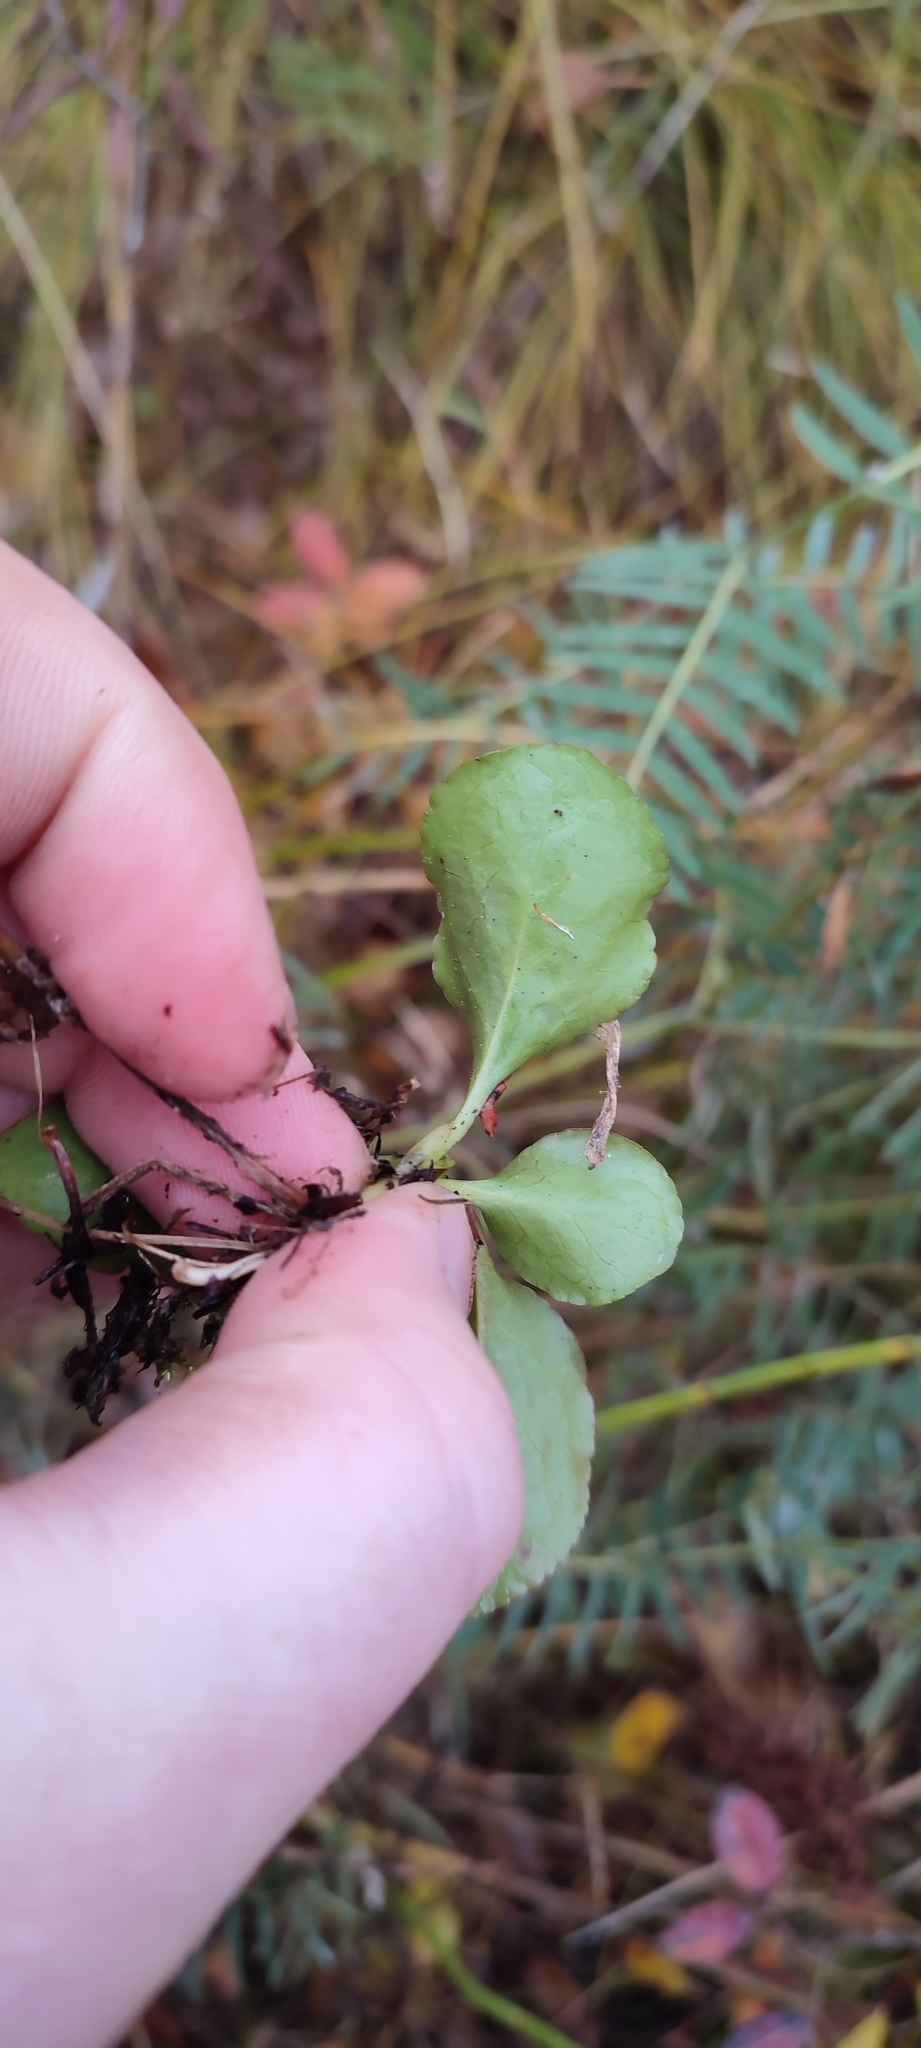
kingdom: Plantae
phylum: Tracheophyta
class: Magnoliopsida
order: Ericales
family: Ericaceae
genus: Pyrola
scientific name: Pyrola minor
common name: Common wintergreen
